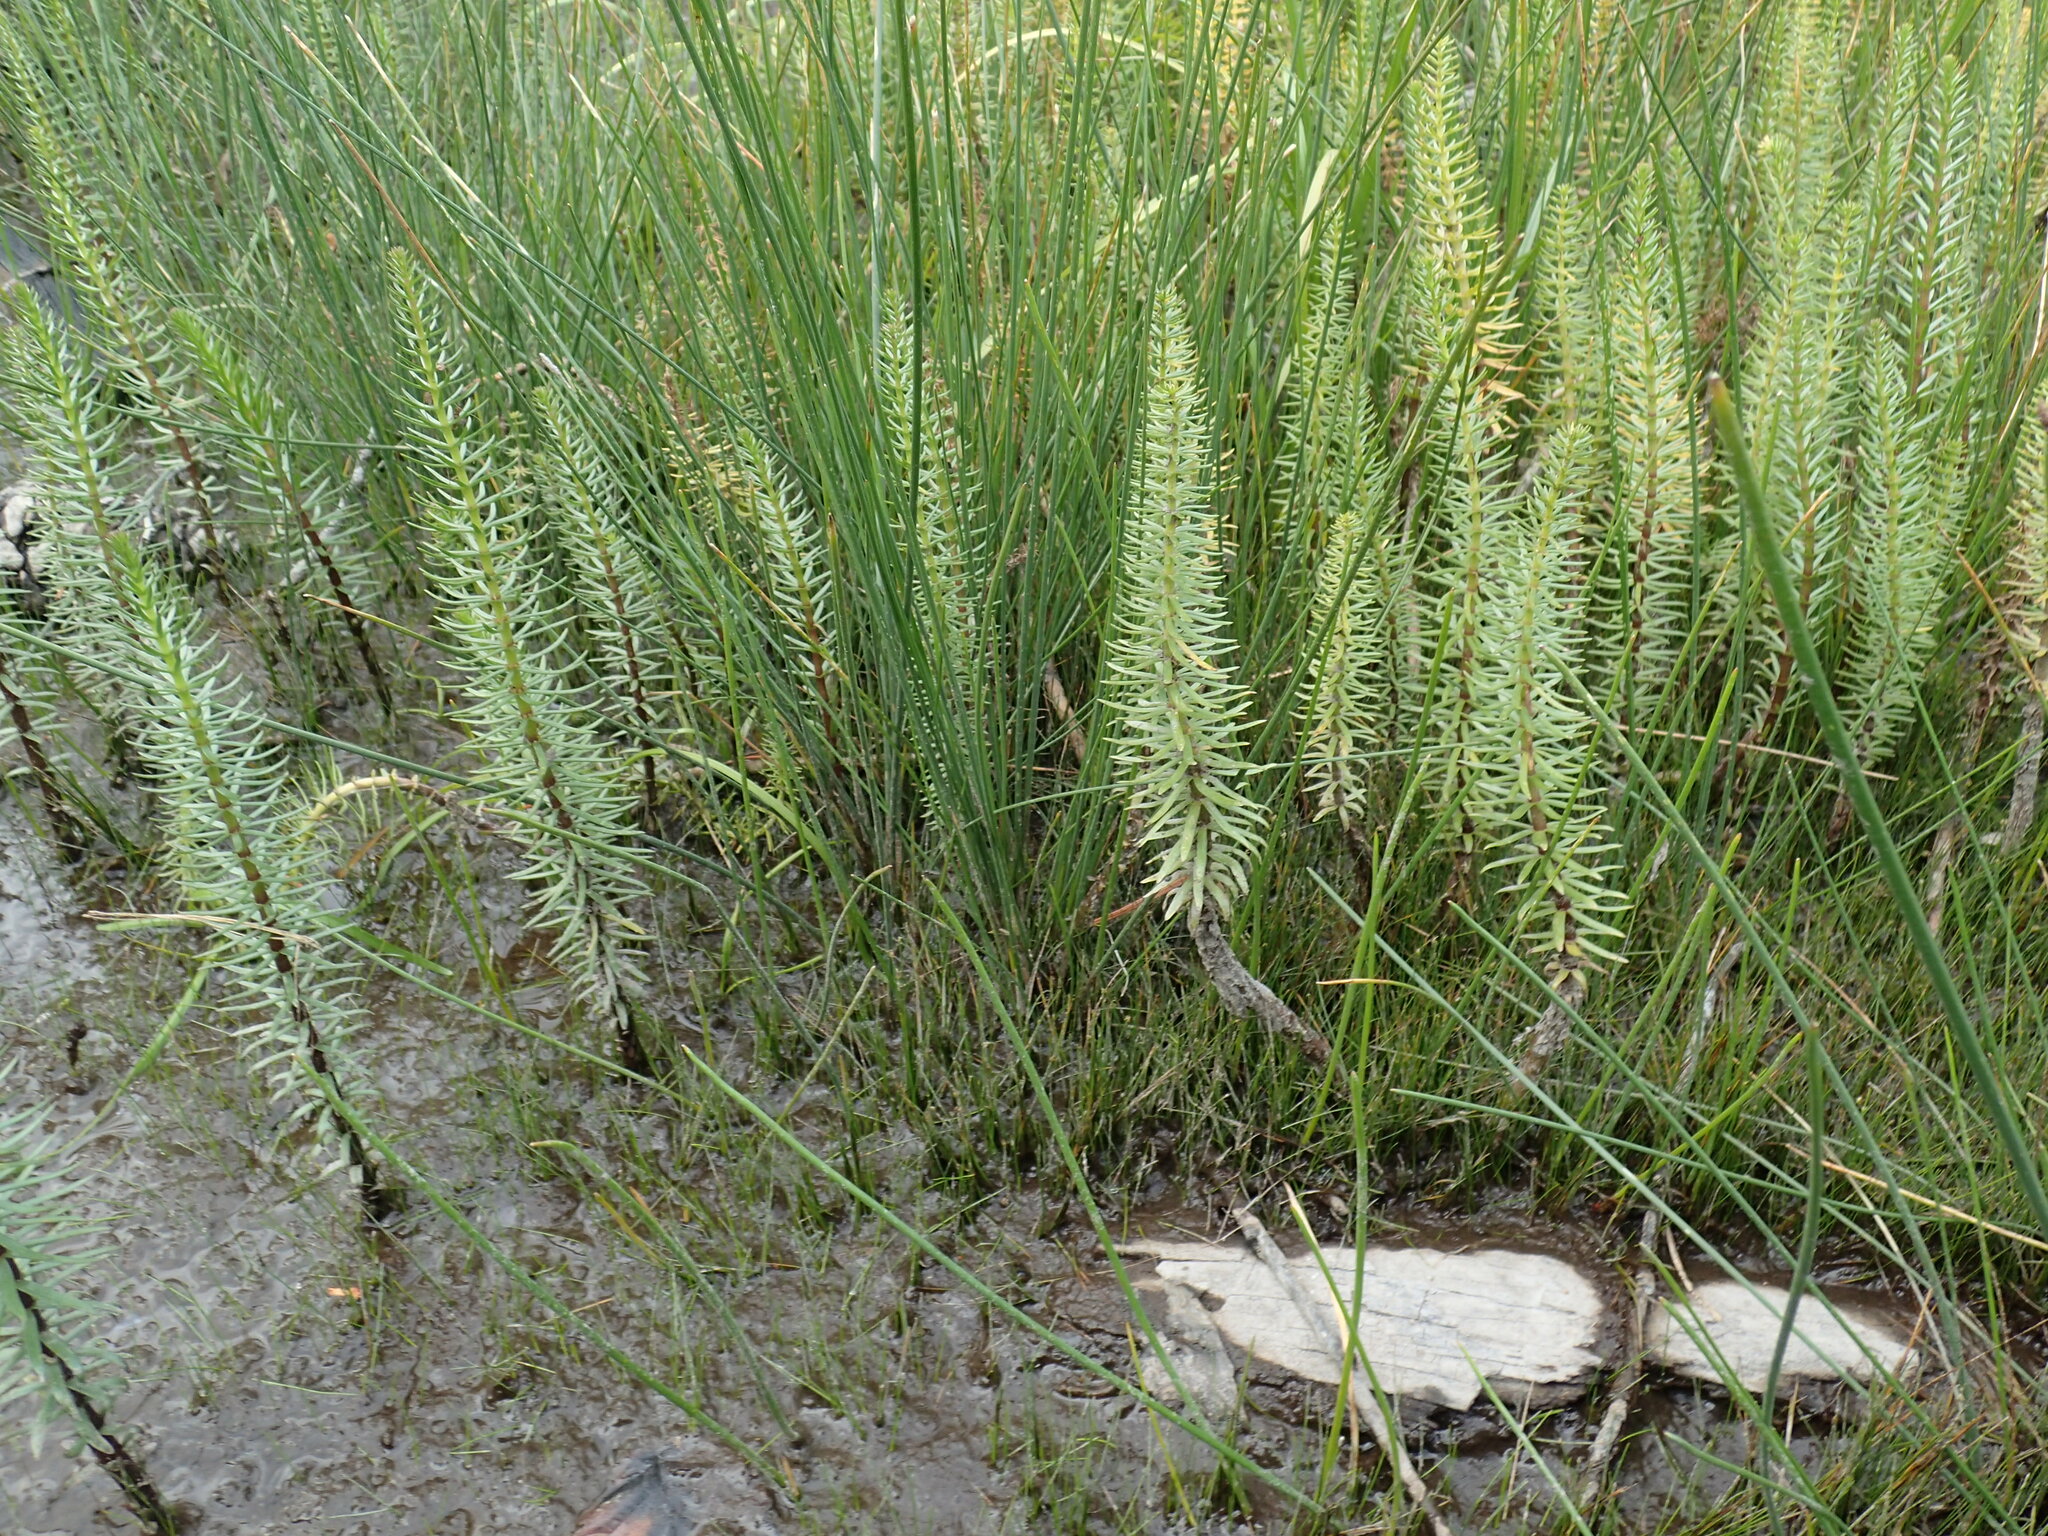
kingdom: Plantae
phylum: Tracheophyta
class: Magnoliopsida
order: Lamiales
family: Plantaginaceae
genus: Hippuris
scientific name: Hippuris vulgaris
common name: Mare's-tail
